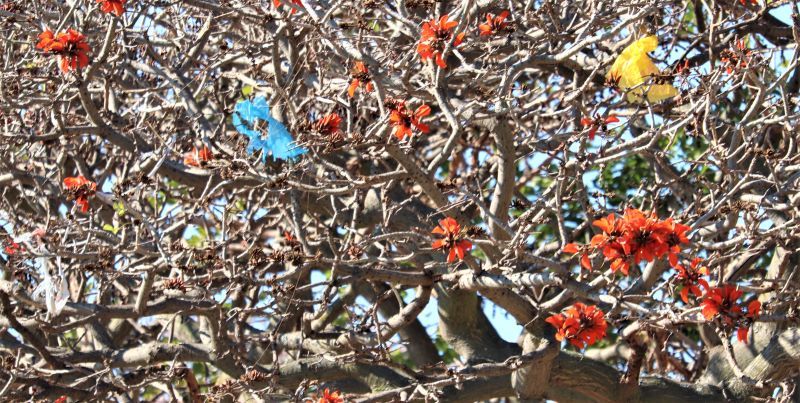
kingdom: Plantae
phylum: Tracheophyta
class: Magnoliopsida
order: Fabales
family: Fabaceae
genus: Erythrina
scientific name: Erythrina caffra
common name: Coast coral tree
